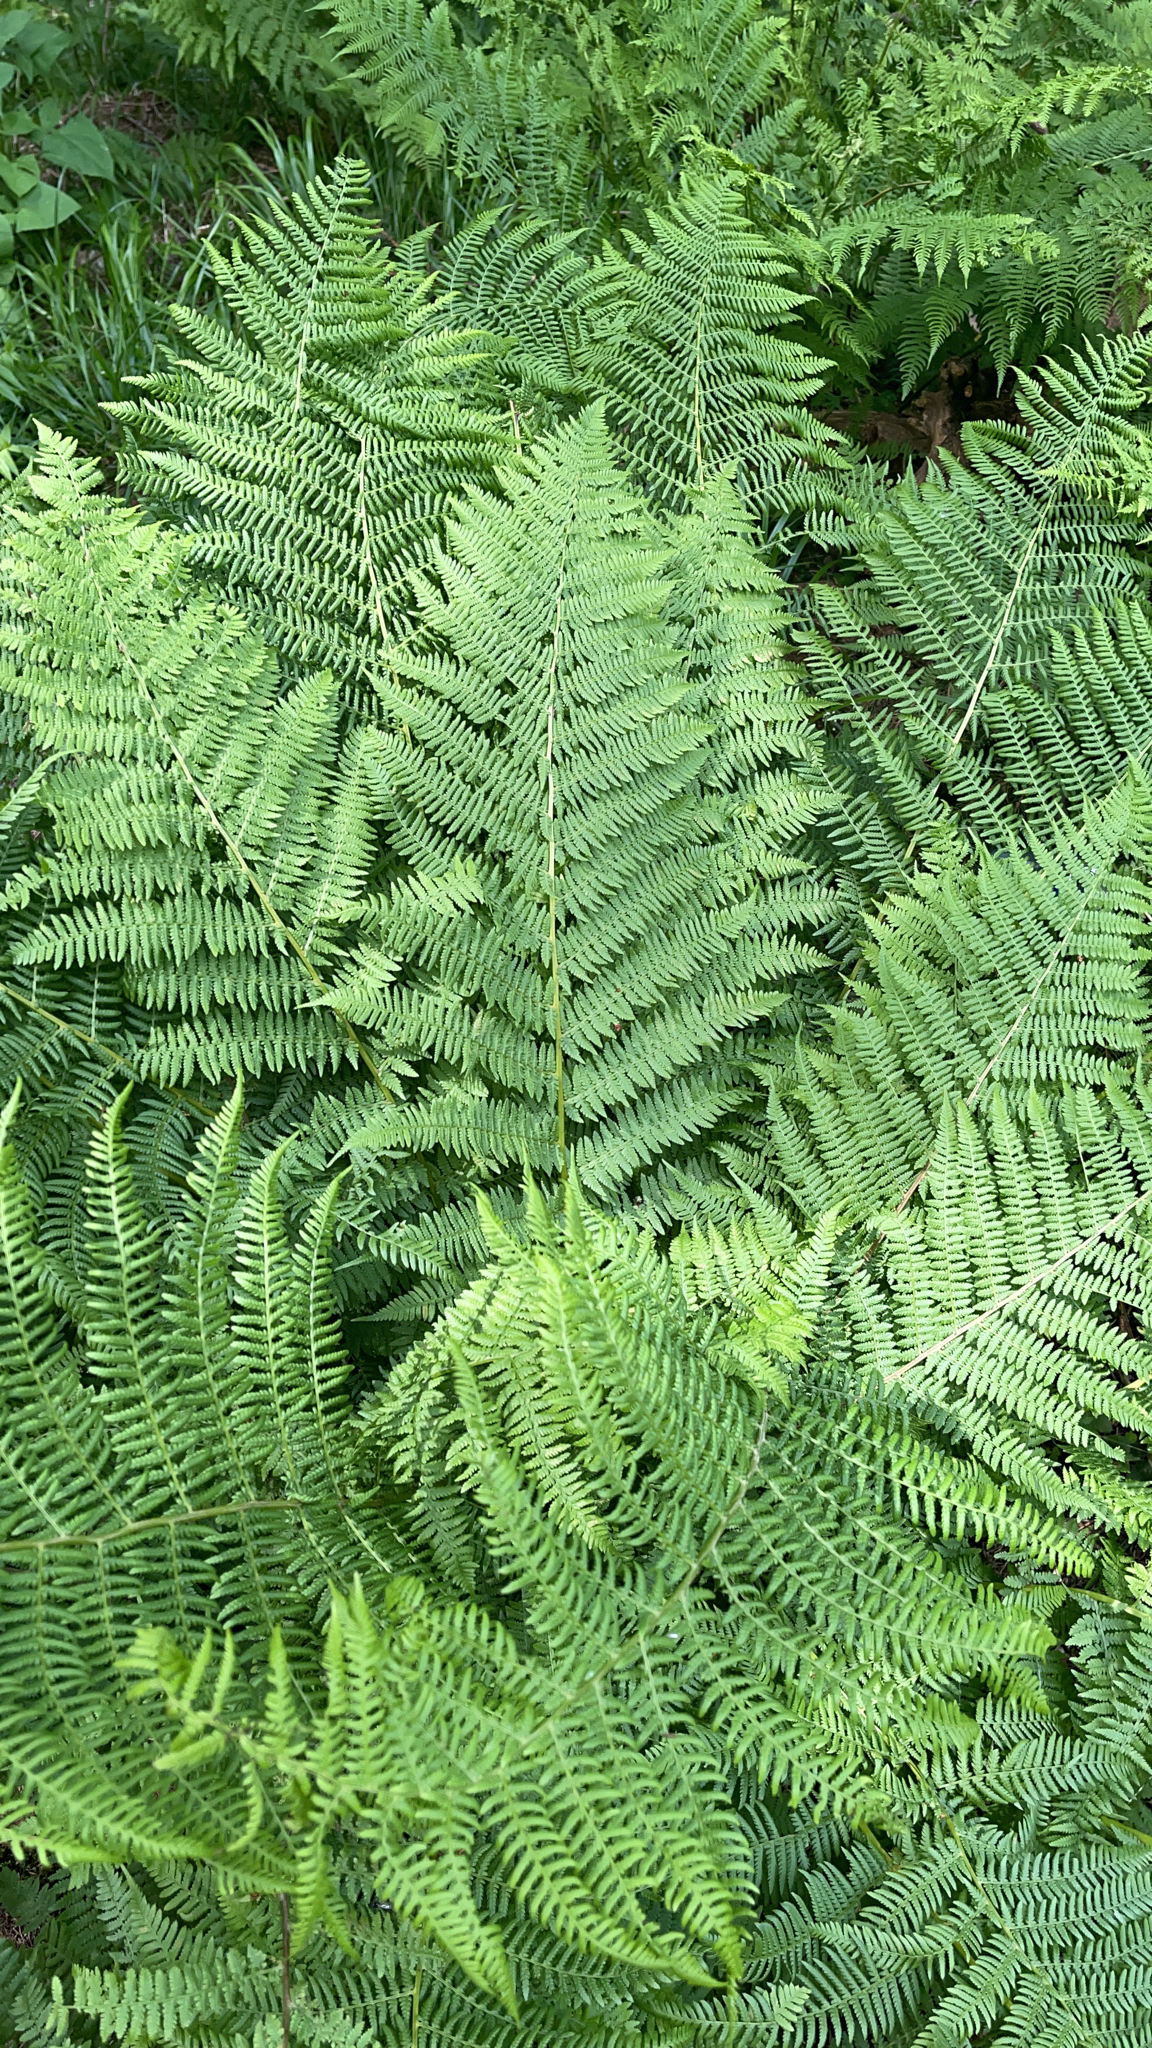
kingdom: Plantae
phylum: Tracheophyta
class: Polypodiopsida
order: Polypodiales
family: Athyriaceae
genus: Athyrium
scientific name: Athyrium filix-femina
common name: Lady fern
